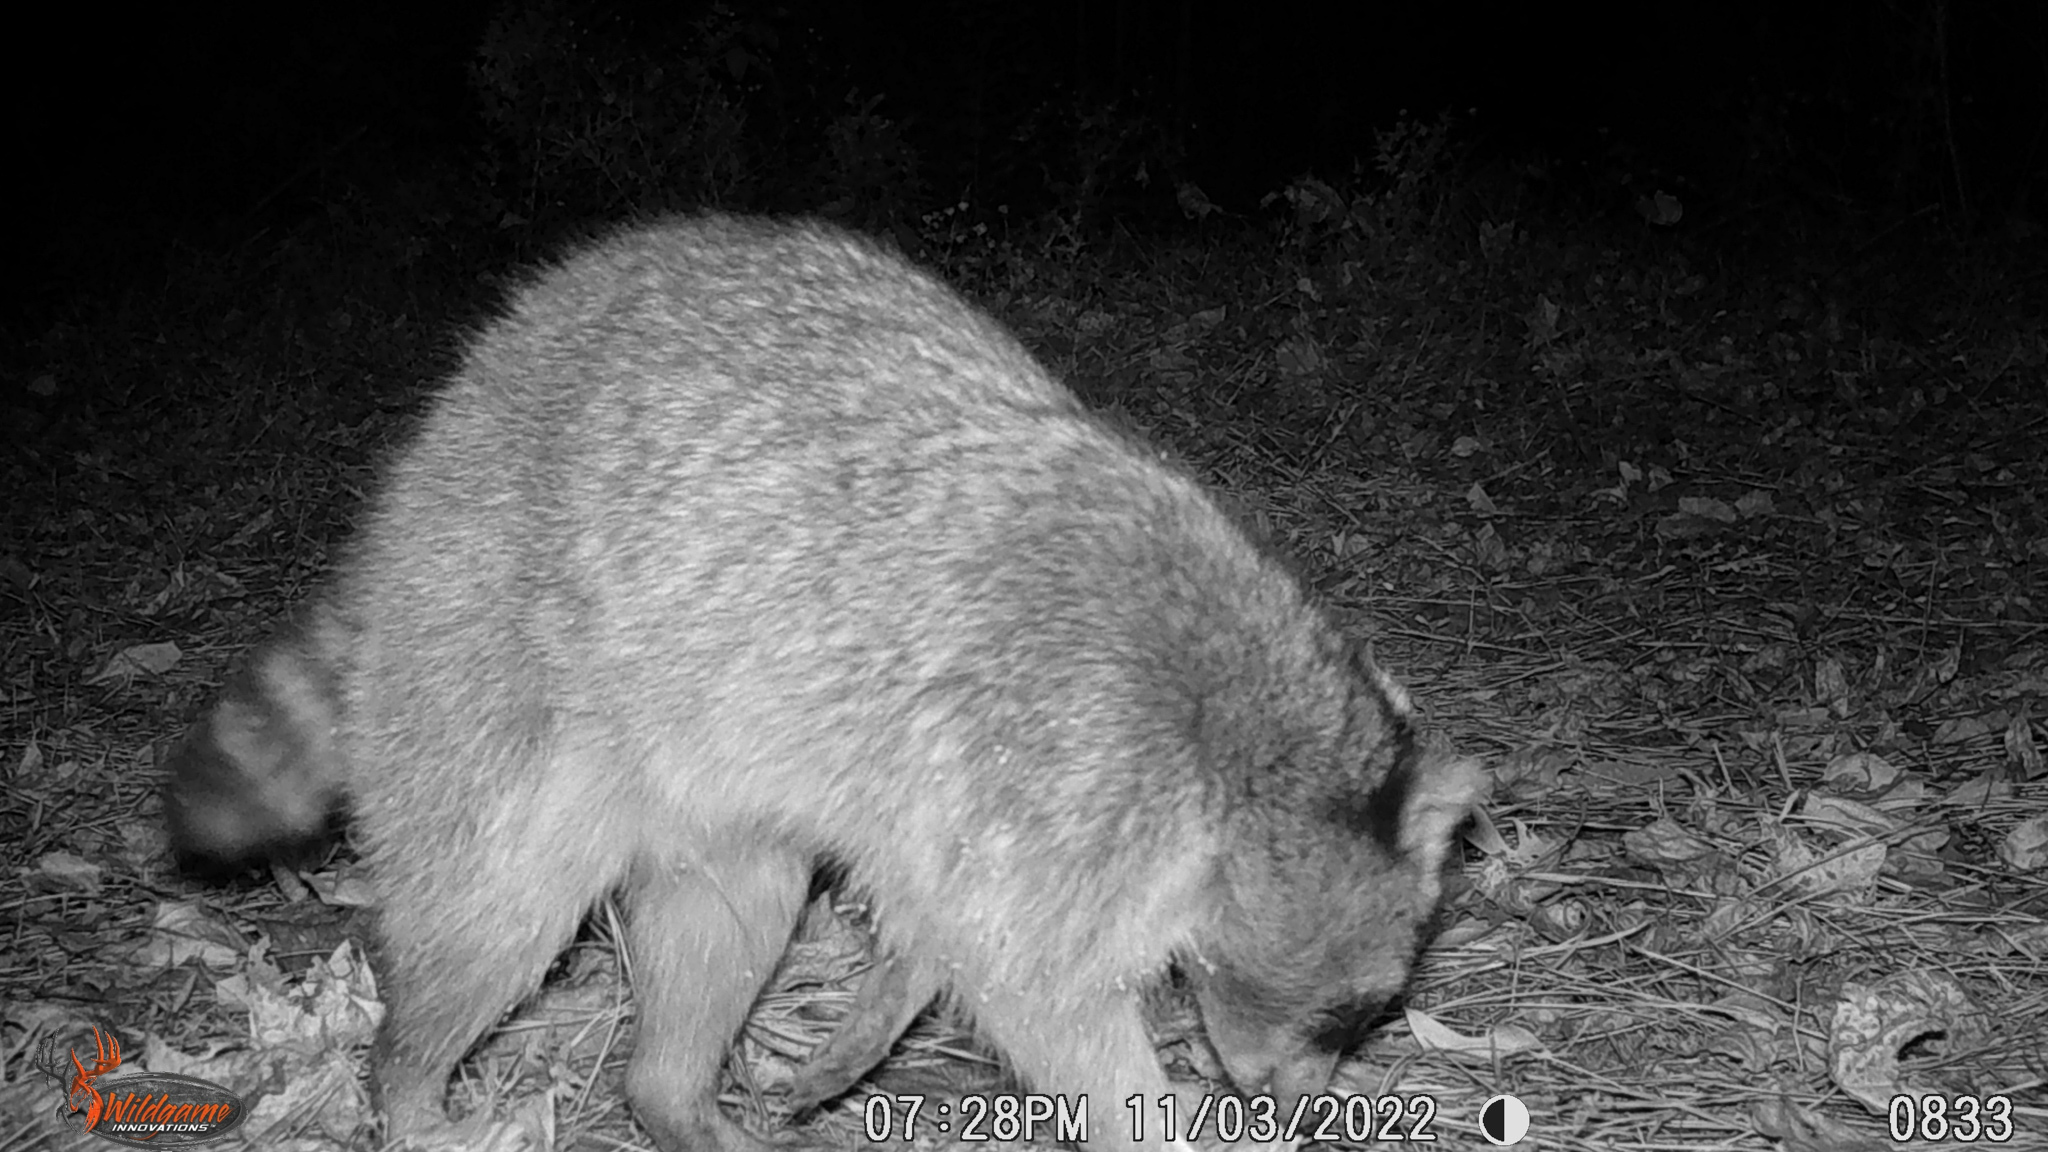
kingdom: Animalia
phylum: Chordata
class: Mammalia
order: Carnivora
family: Procyonidae
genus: Procyon
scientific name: Procyon lotor
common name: Raccoon
